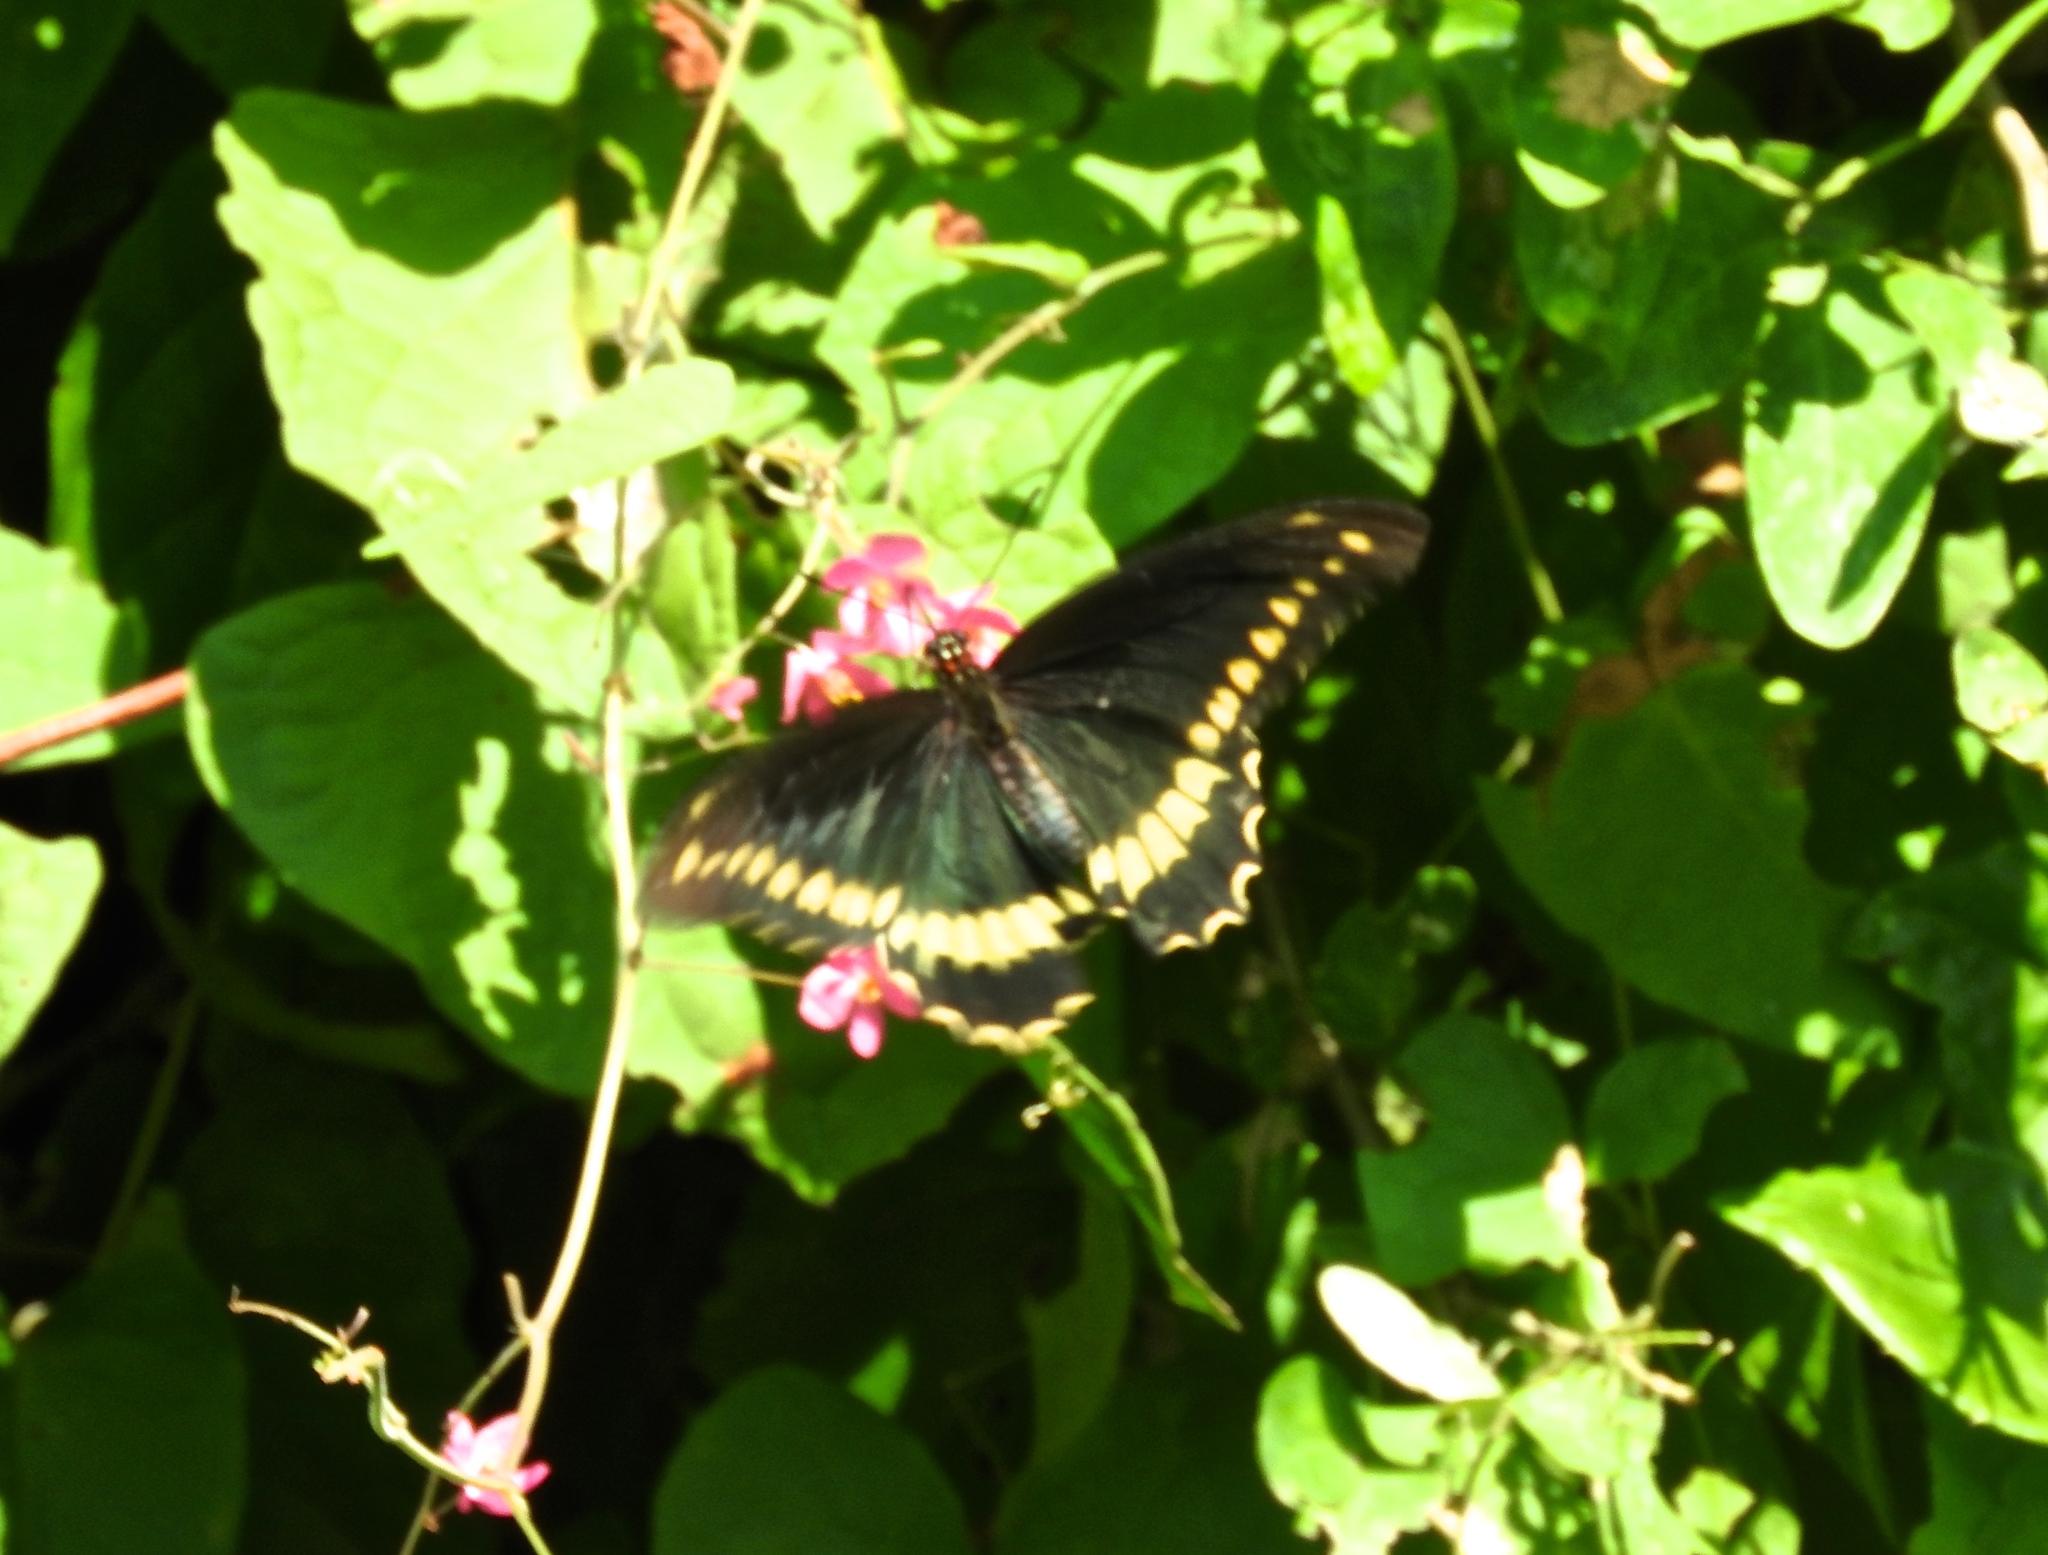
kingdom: Animalia
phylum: Arthropoda
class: Insecta
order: Lepidoptera
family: Papilionidae
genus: Battus
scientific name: Battus polydamas
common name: Polydamas swallowtail
